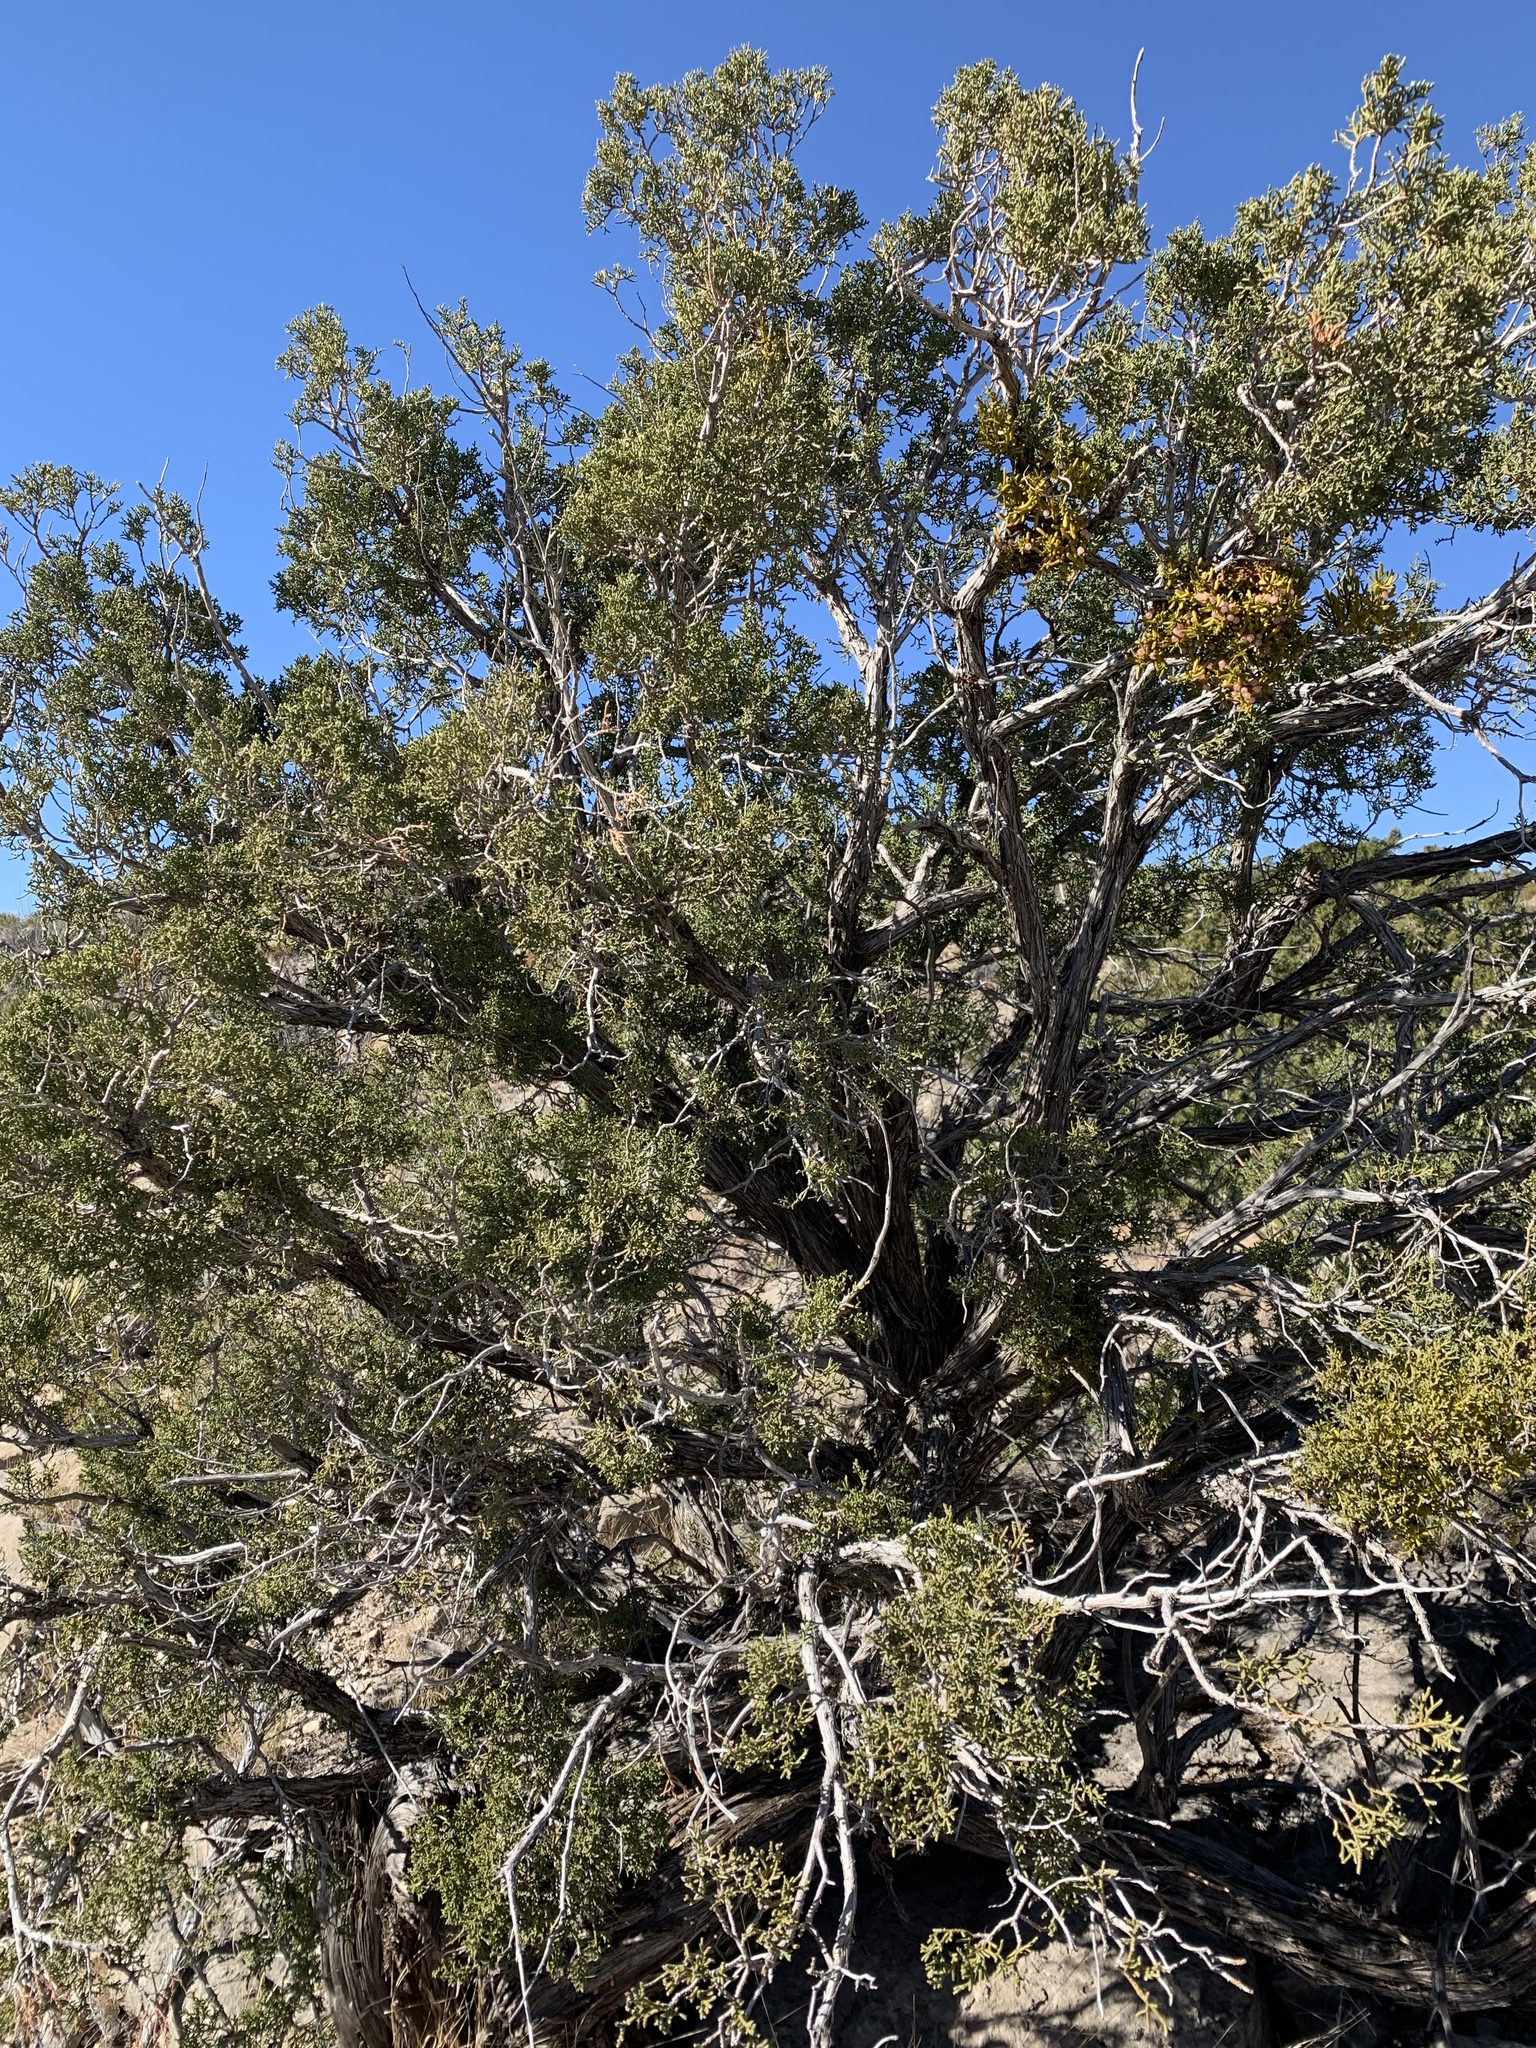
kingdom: Plantae
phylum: Tracheophyta
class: Pinopsida
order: Pinales
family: Cupressaceae
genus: Juniperus
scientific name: Juniperus monosperma
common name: One-seed juniper
